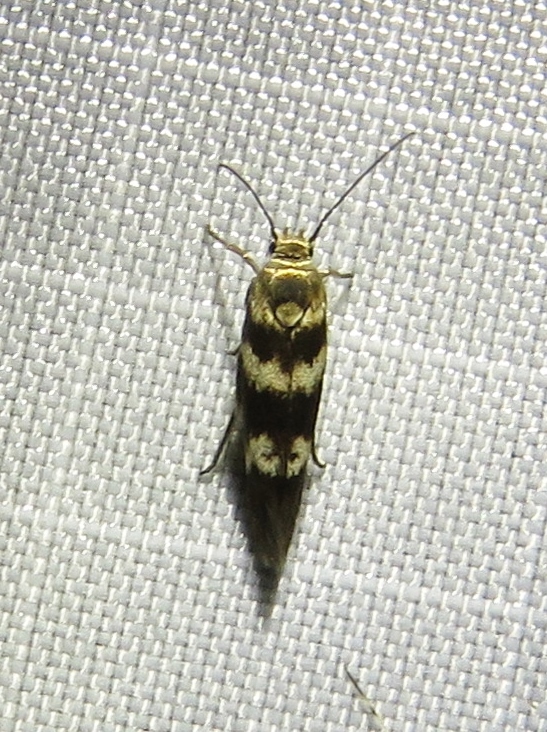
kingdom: Animalia
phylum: Arthropoda
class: Insecta
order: Lepidoptera
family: Scythrididae
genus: Scythris
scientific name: Scythris trivinctella
